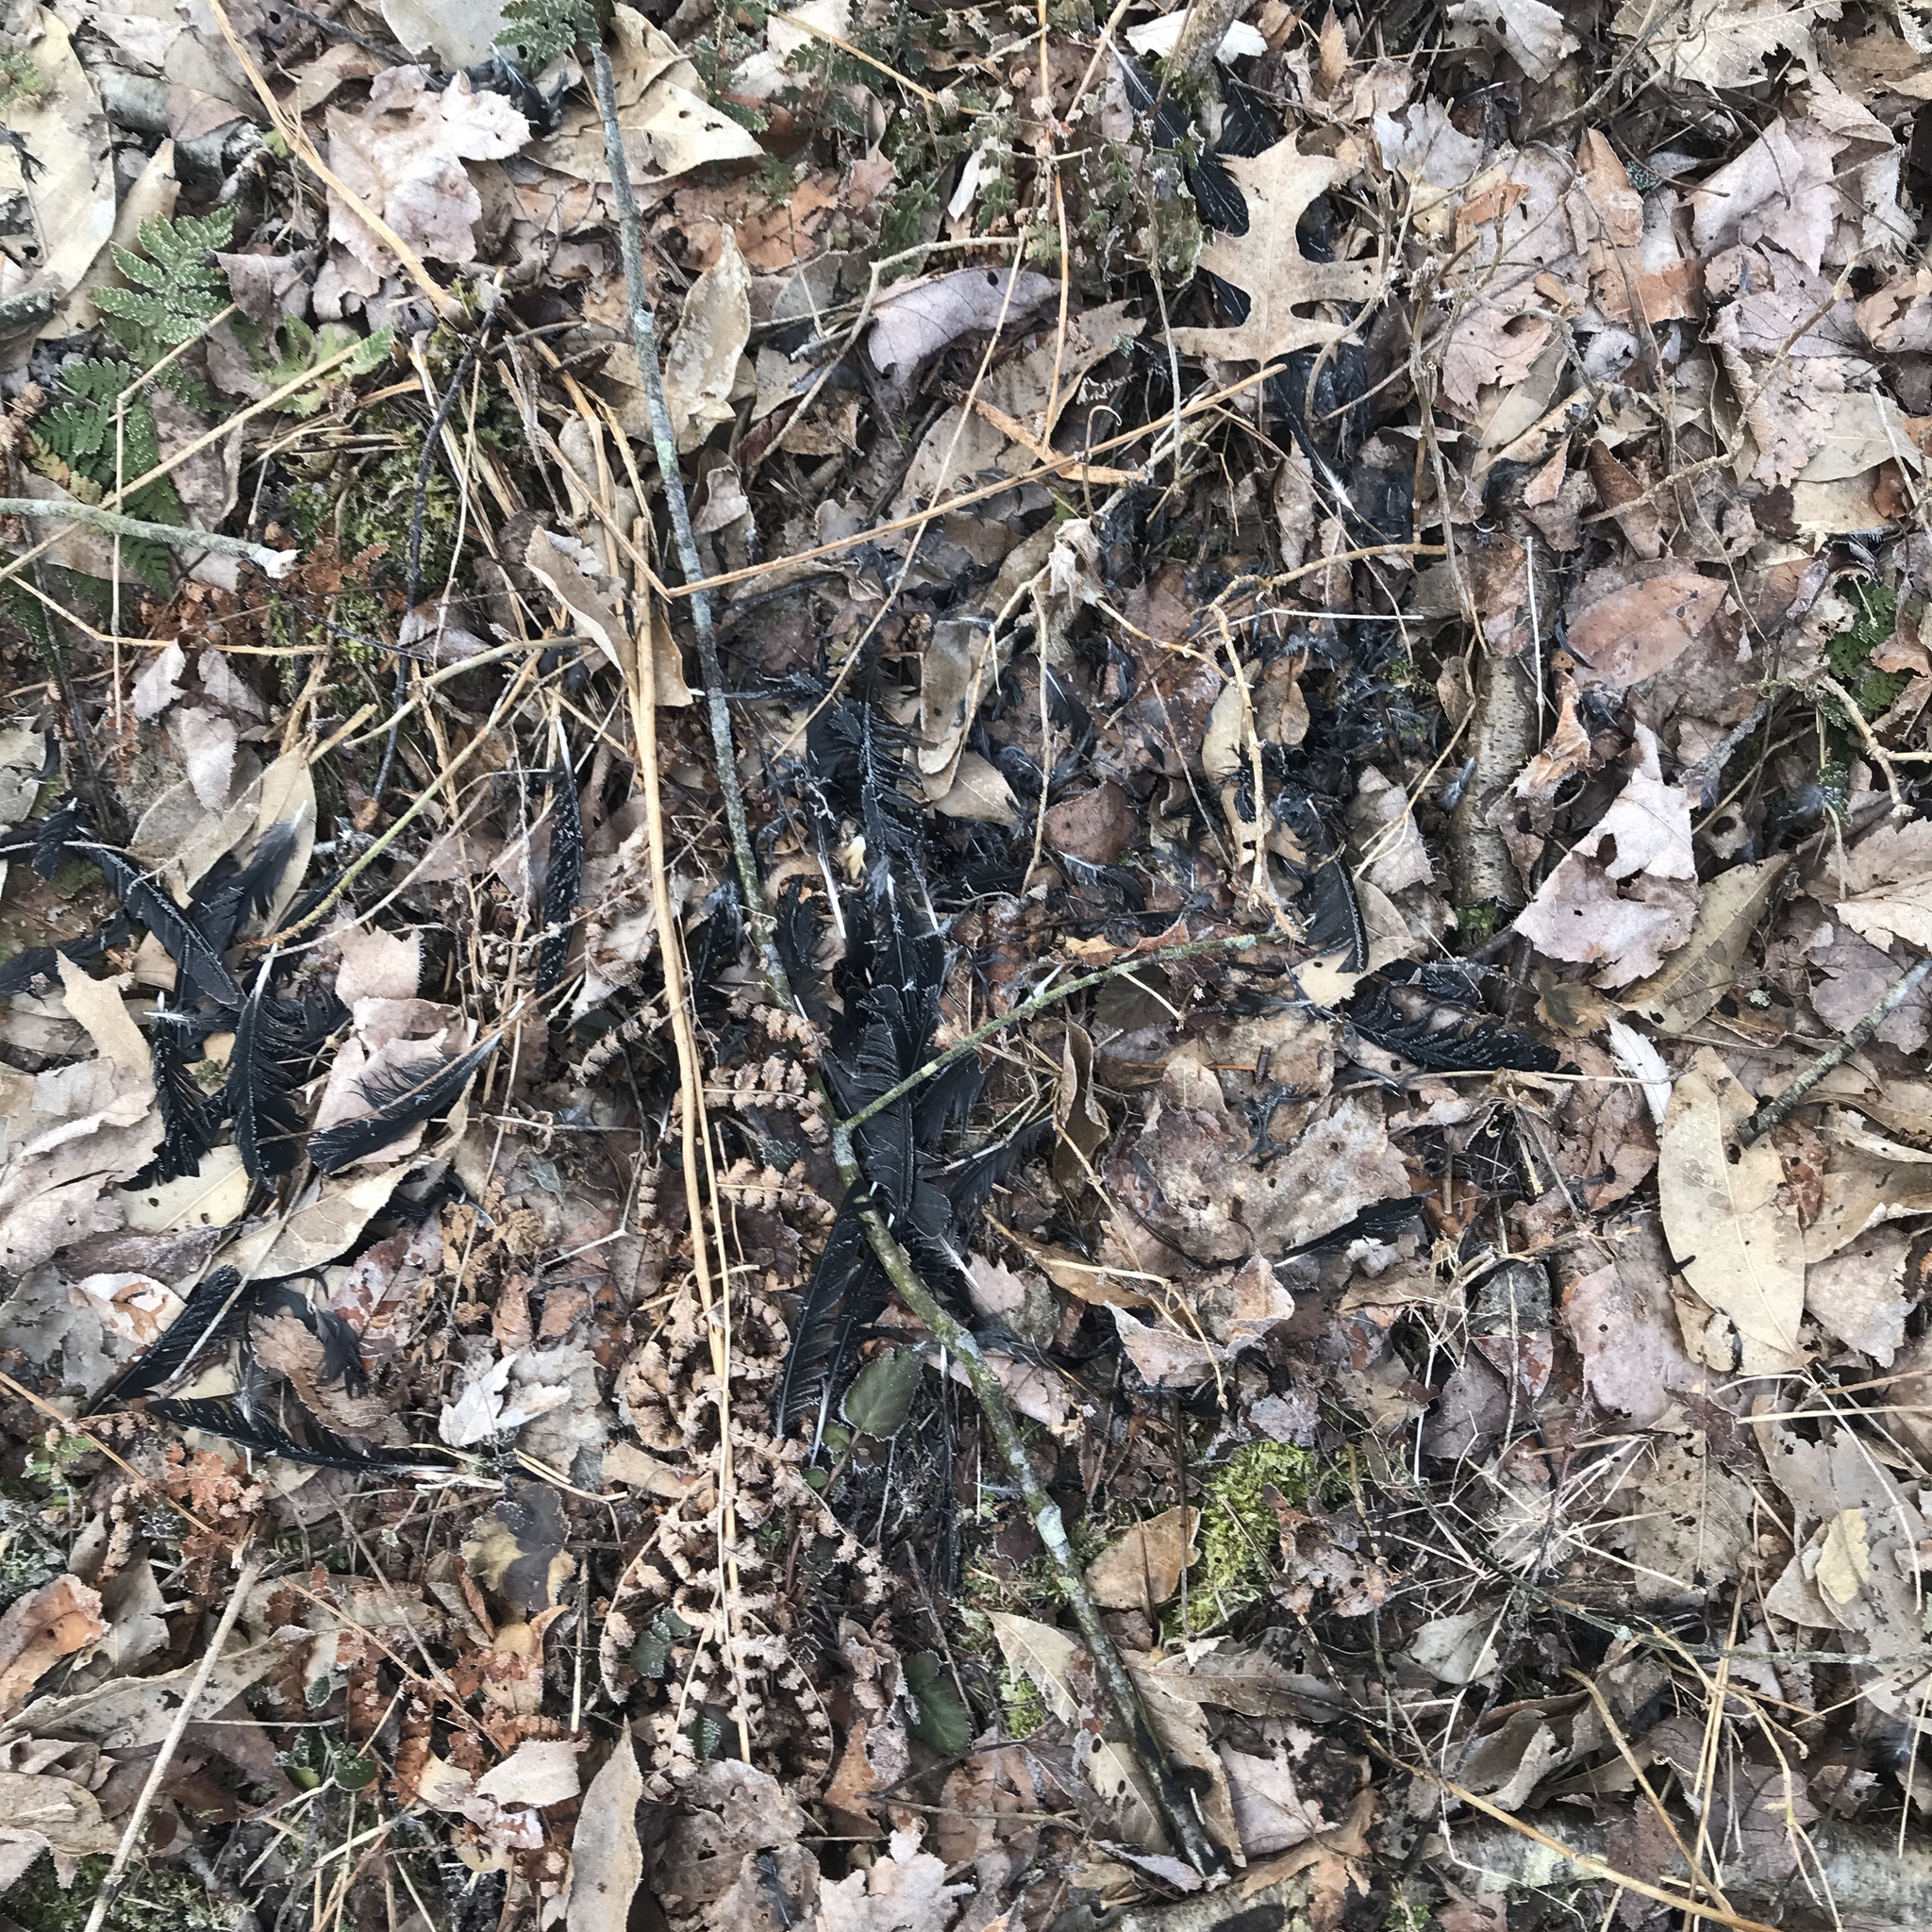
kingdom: Animalia
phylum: Chordata
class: Aves
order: Passeriformes
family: Corvidae
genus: Corvus
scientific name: Corvus brachyrhynchos
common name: American crow
